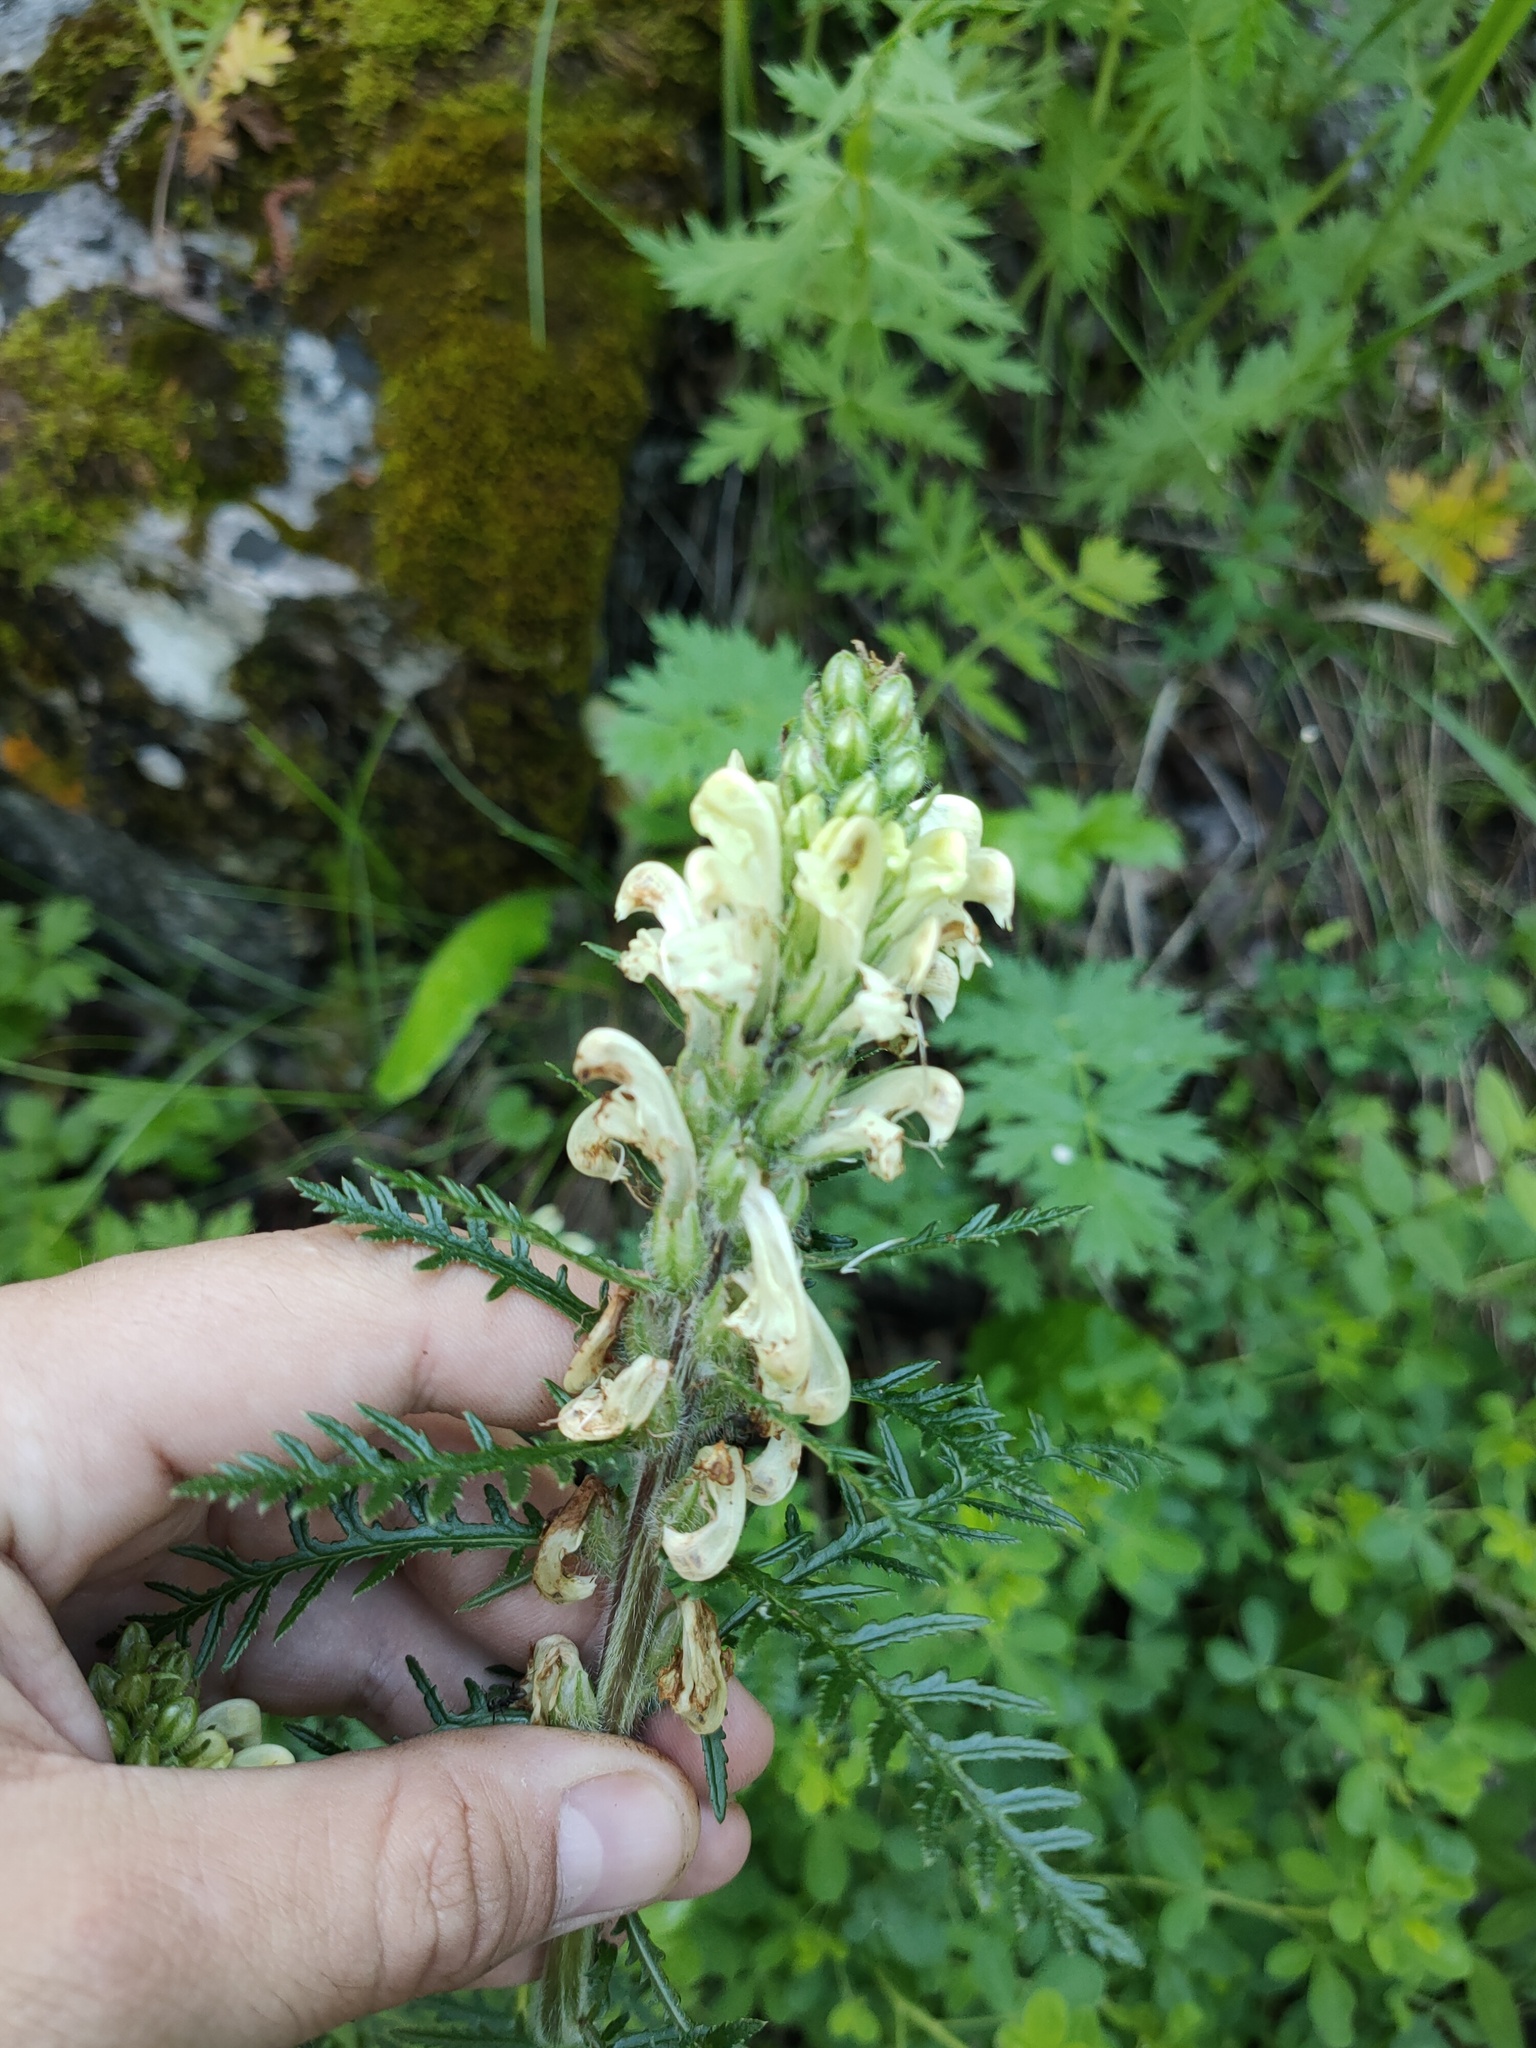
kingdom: Plantae
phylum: Tracheophyta
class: Magnoliopsida
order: Lamiales
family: Orobanchaceae
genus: Pedicularis
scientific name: Pedicularis uralensis
